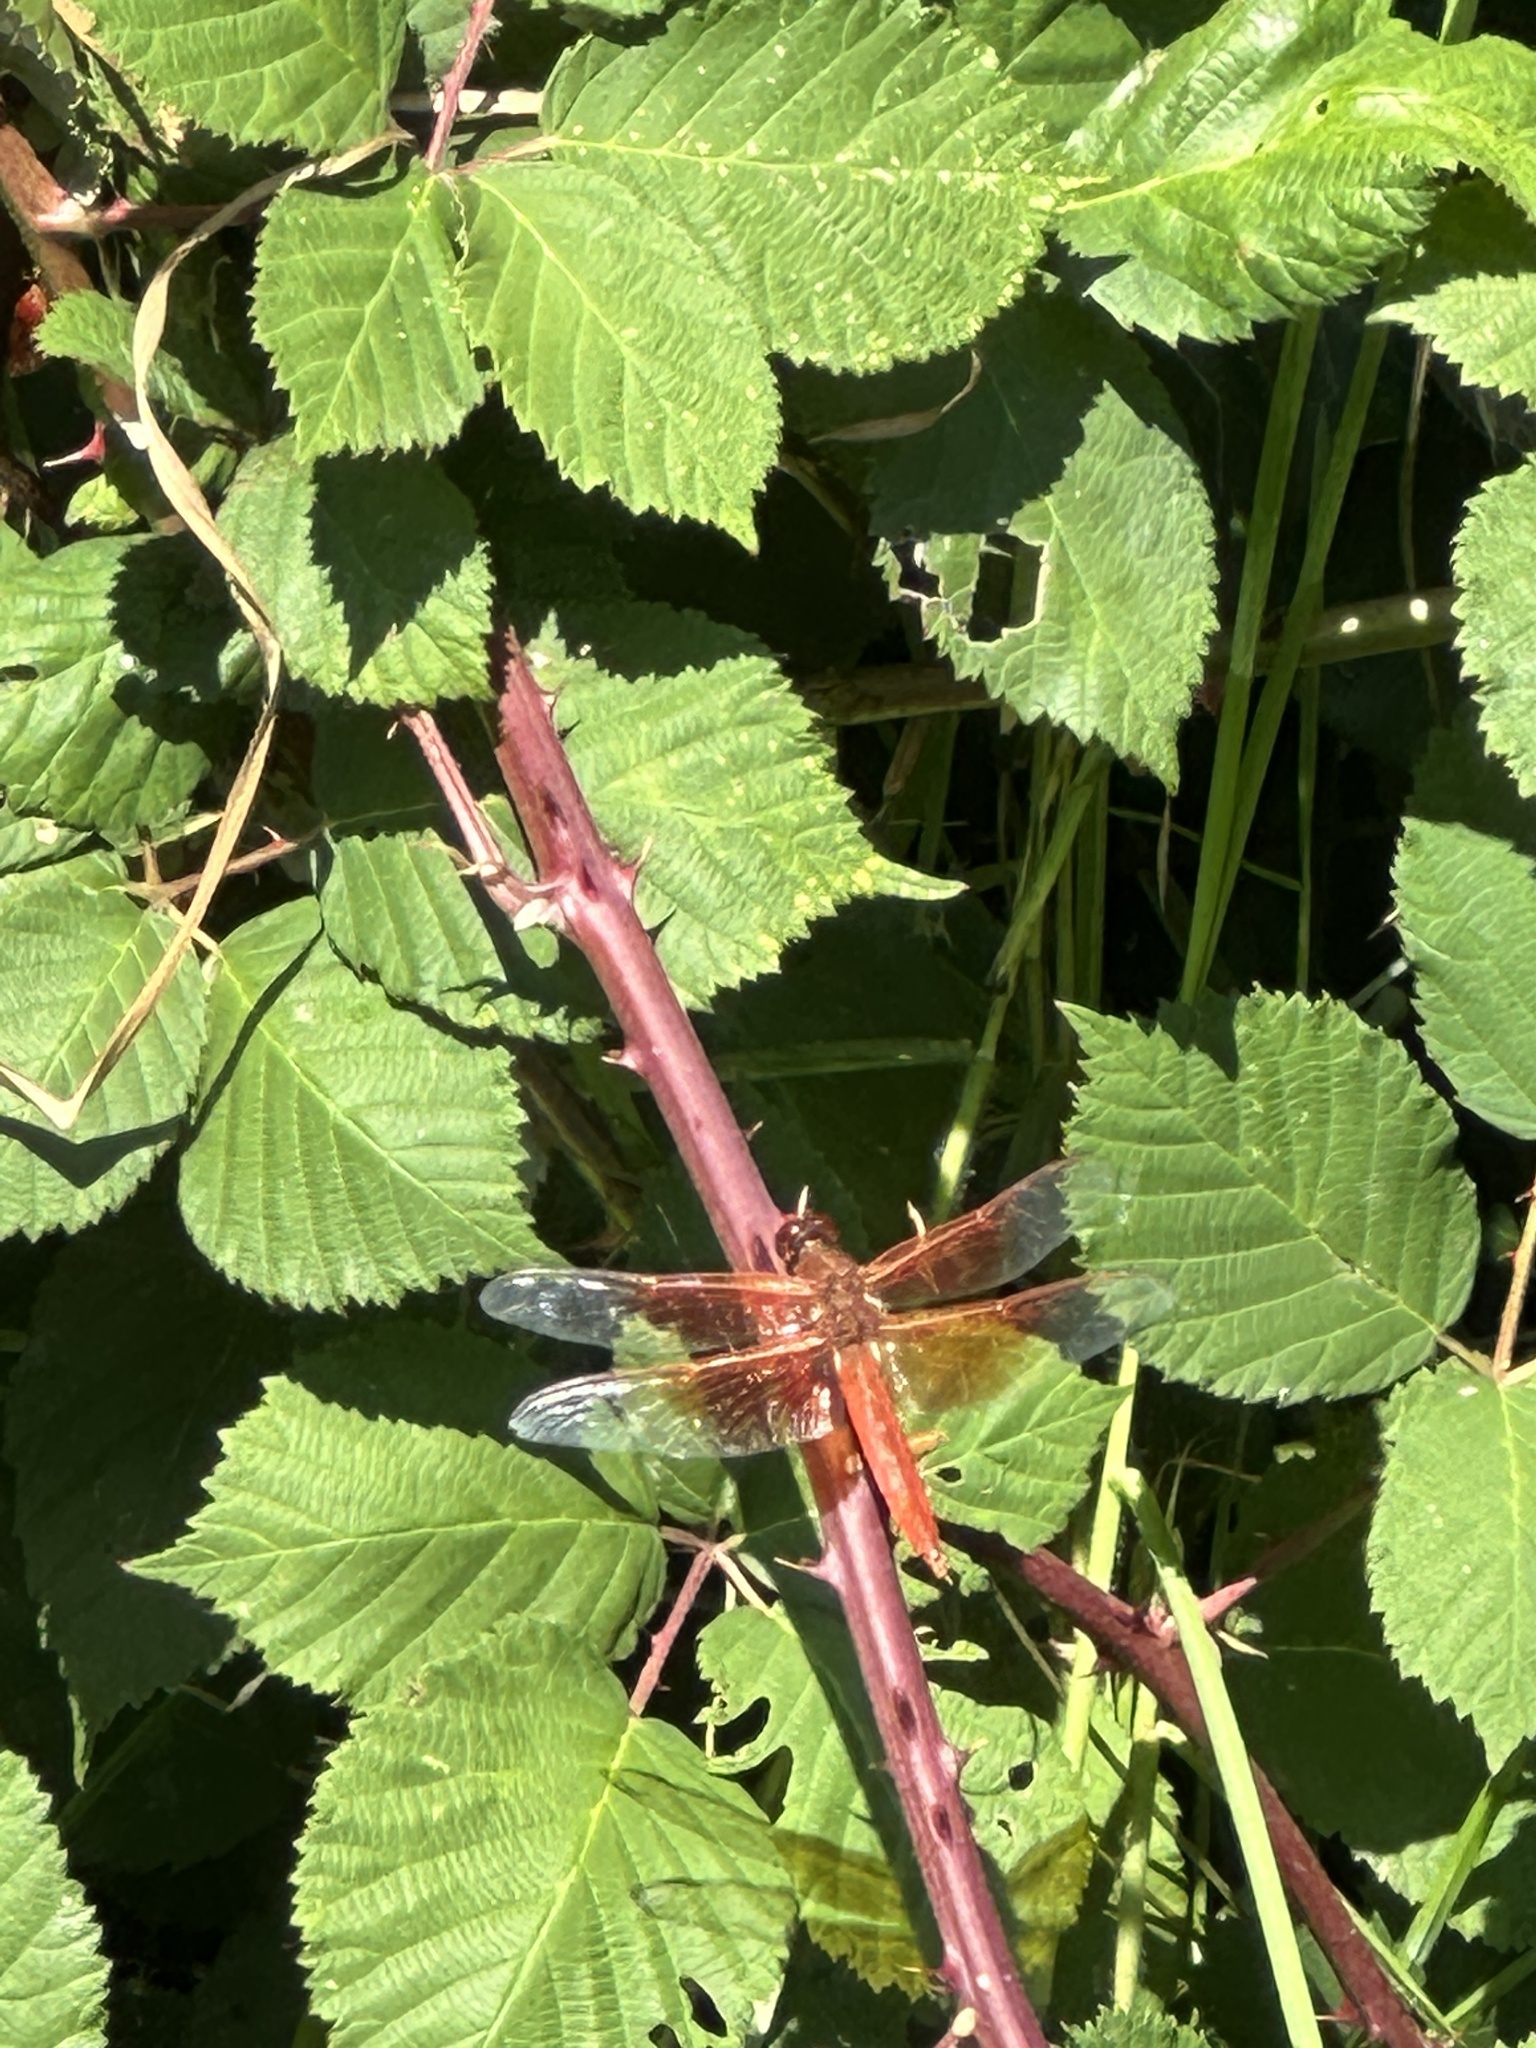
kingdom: Animalia
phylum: Arthropoda
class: Insecta
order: Odonata
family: Libellulidae
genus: Libellula
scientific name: Libellula saturata
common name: Flame skimmer
